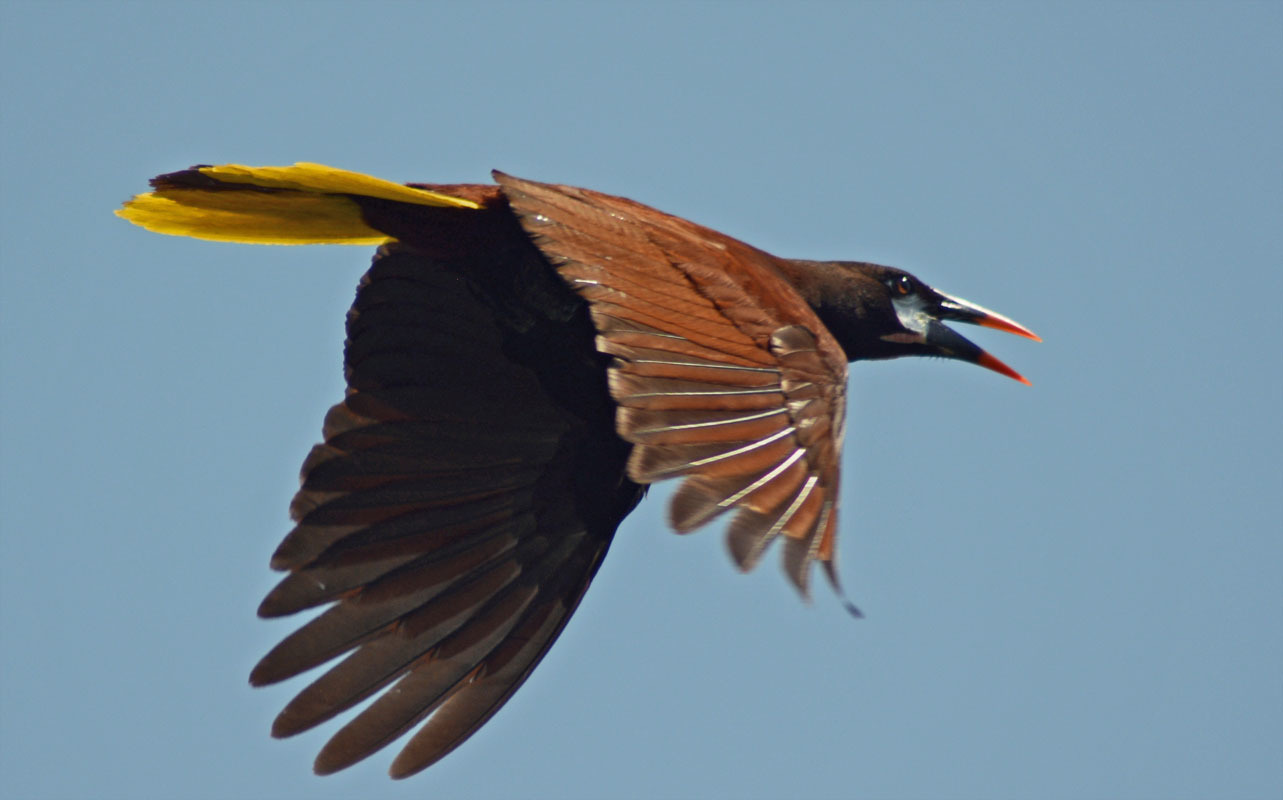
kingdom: Animalia
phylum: Chordata
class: Aves
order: Passeriformes
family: Icteridae
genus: Psarocolius
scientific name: Psarocolius montezuma
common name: Montezuma oropendola
